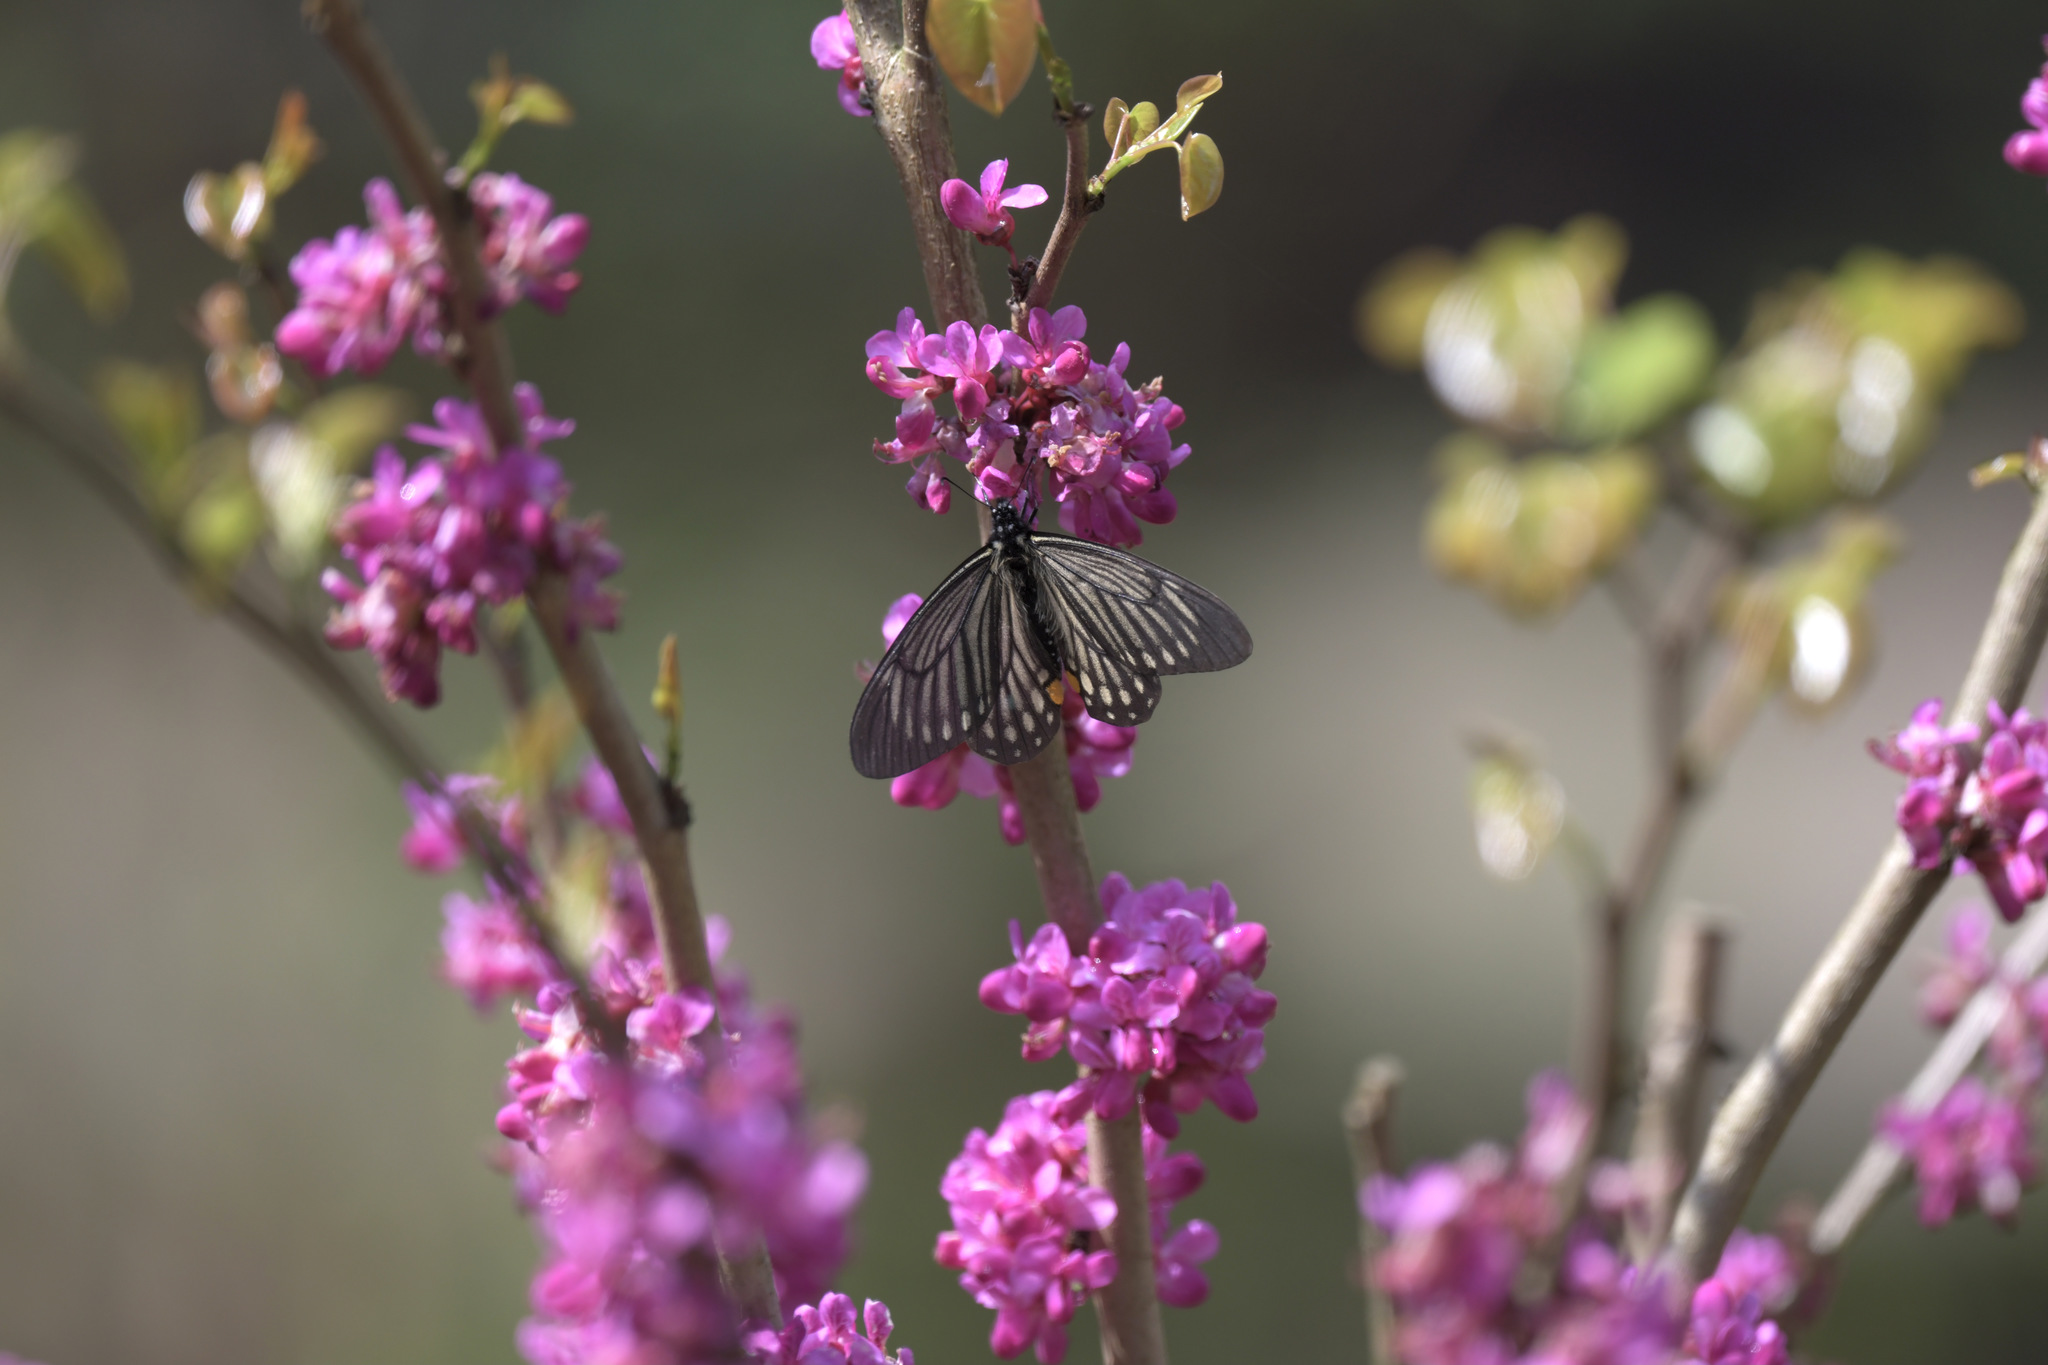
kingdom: Animalia
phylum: Arthropoda
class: Insecta
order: Lepidoptera
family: Papilionidae
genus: Papilio
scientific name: Papilio epycides
